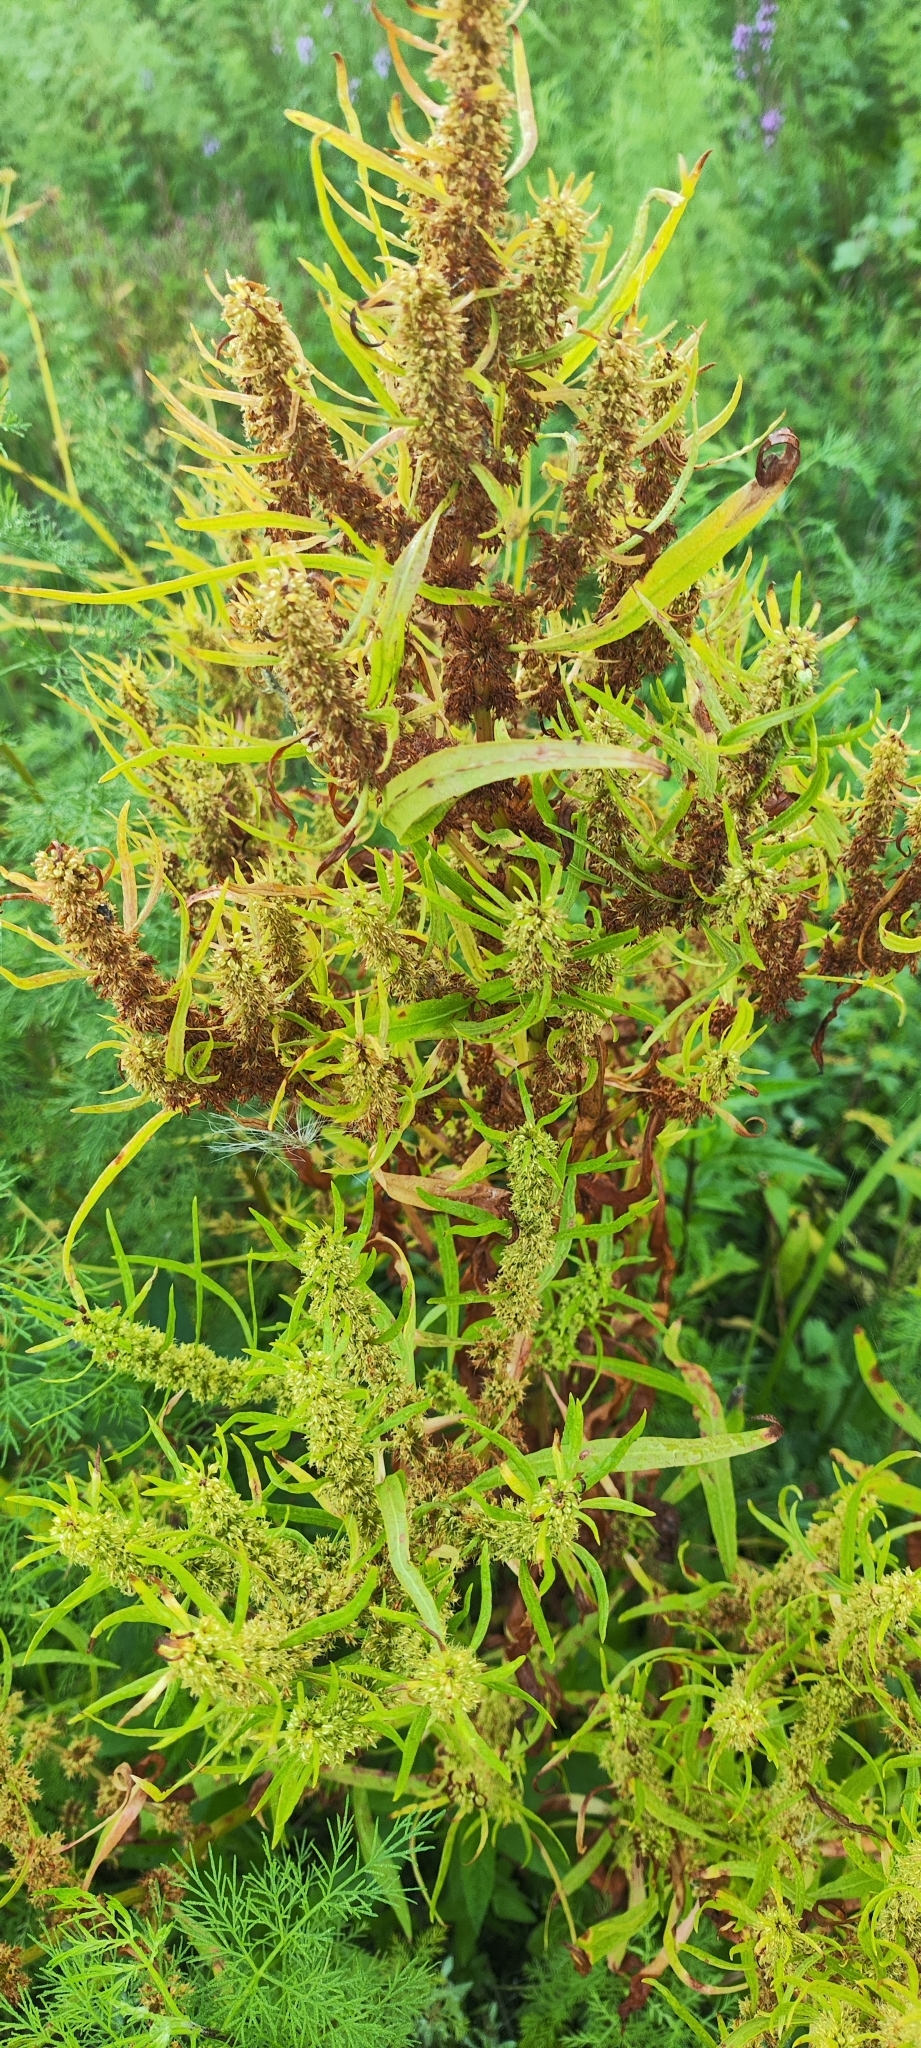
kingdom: Plantae
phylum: Tracheophyta
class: Magnoliopsida
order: Caryophyllales
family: Polygonaceae
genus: Rumex
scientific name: Rumex maritimus
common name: Golden dock
